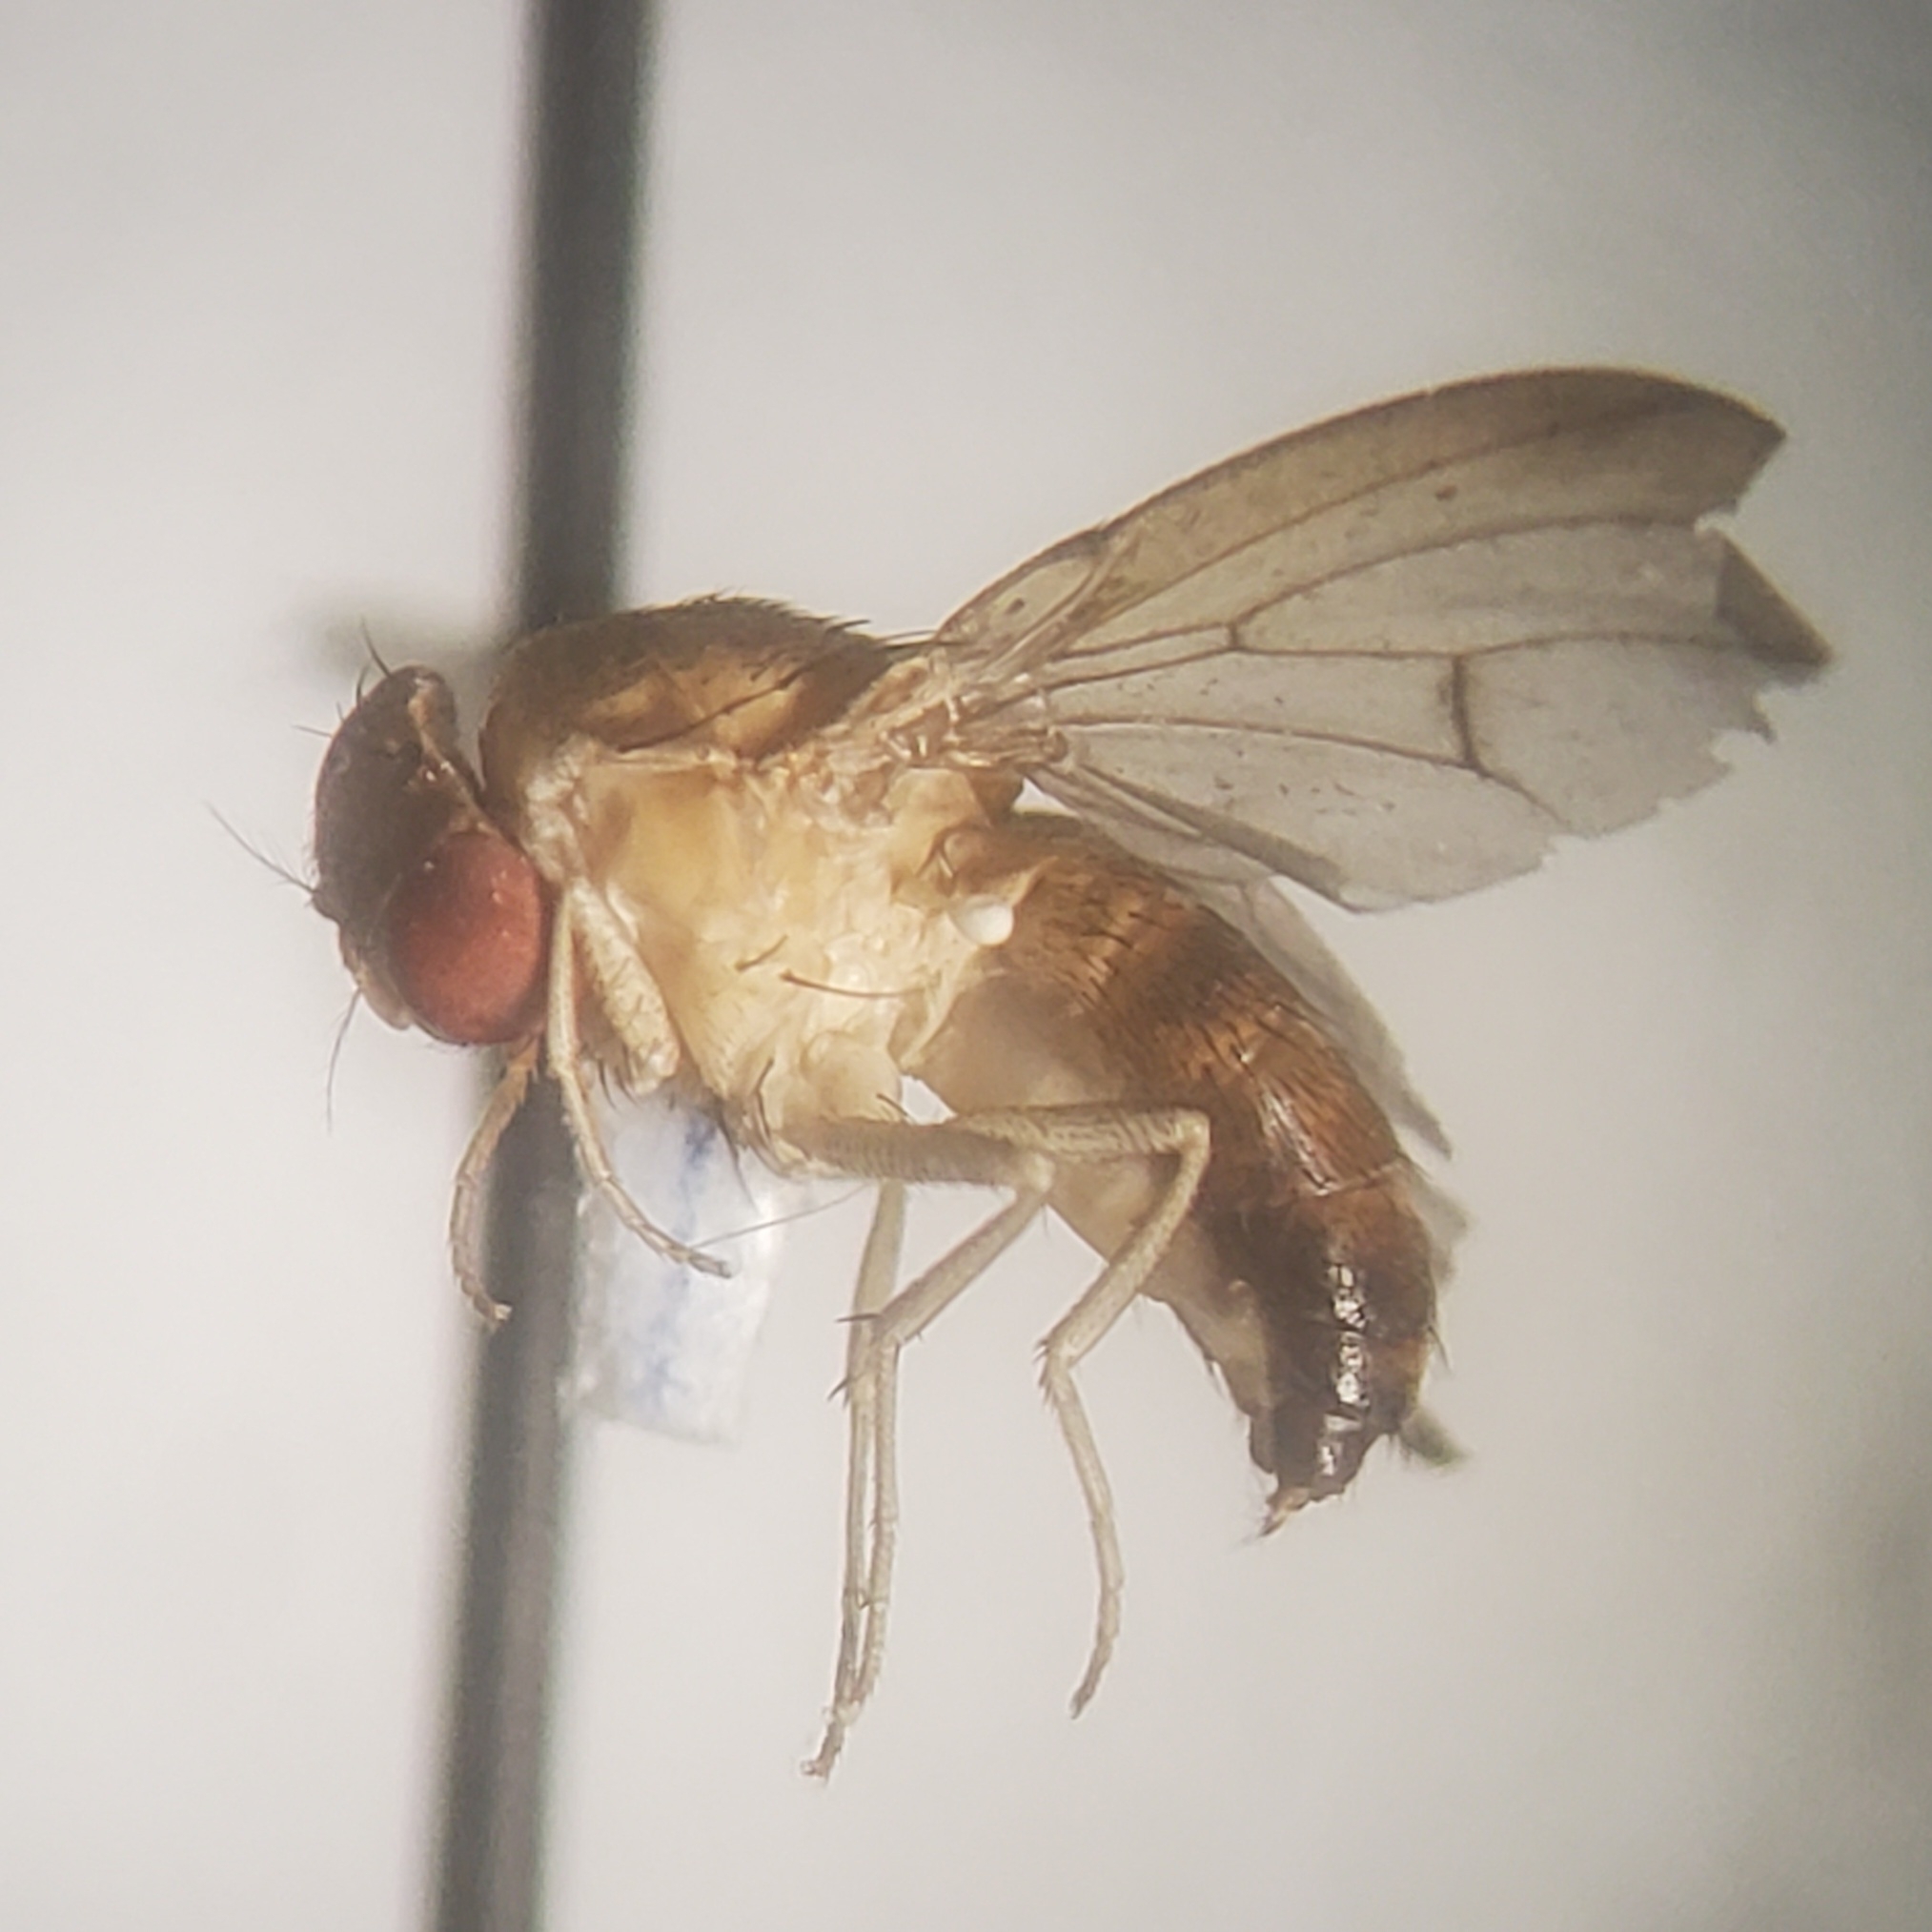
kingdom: Animalia
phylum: Arthropoda
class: Insecta
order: Diptera
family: Drosophilidae
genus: Rhinoleucophenga
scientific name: Rhinoleucophenga obesa
